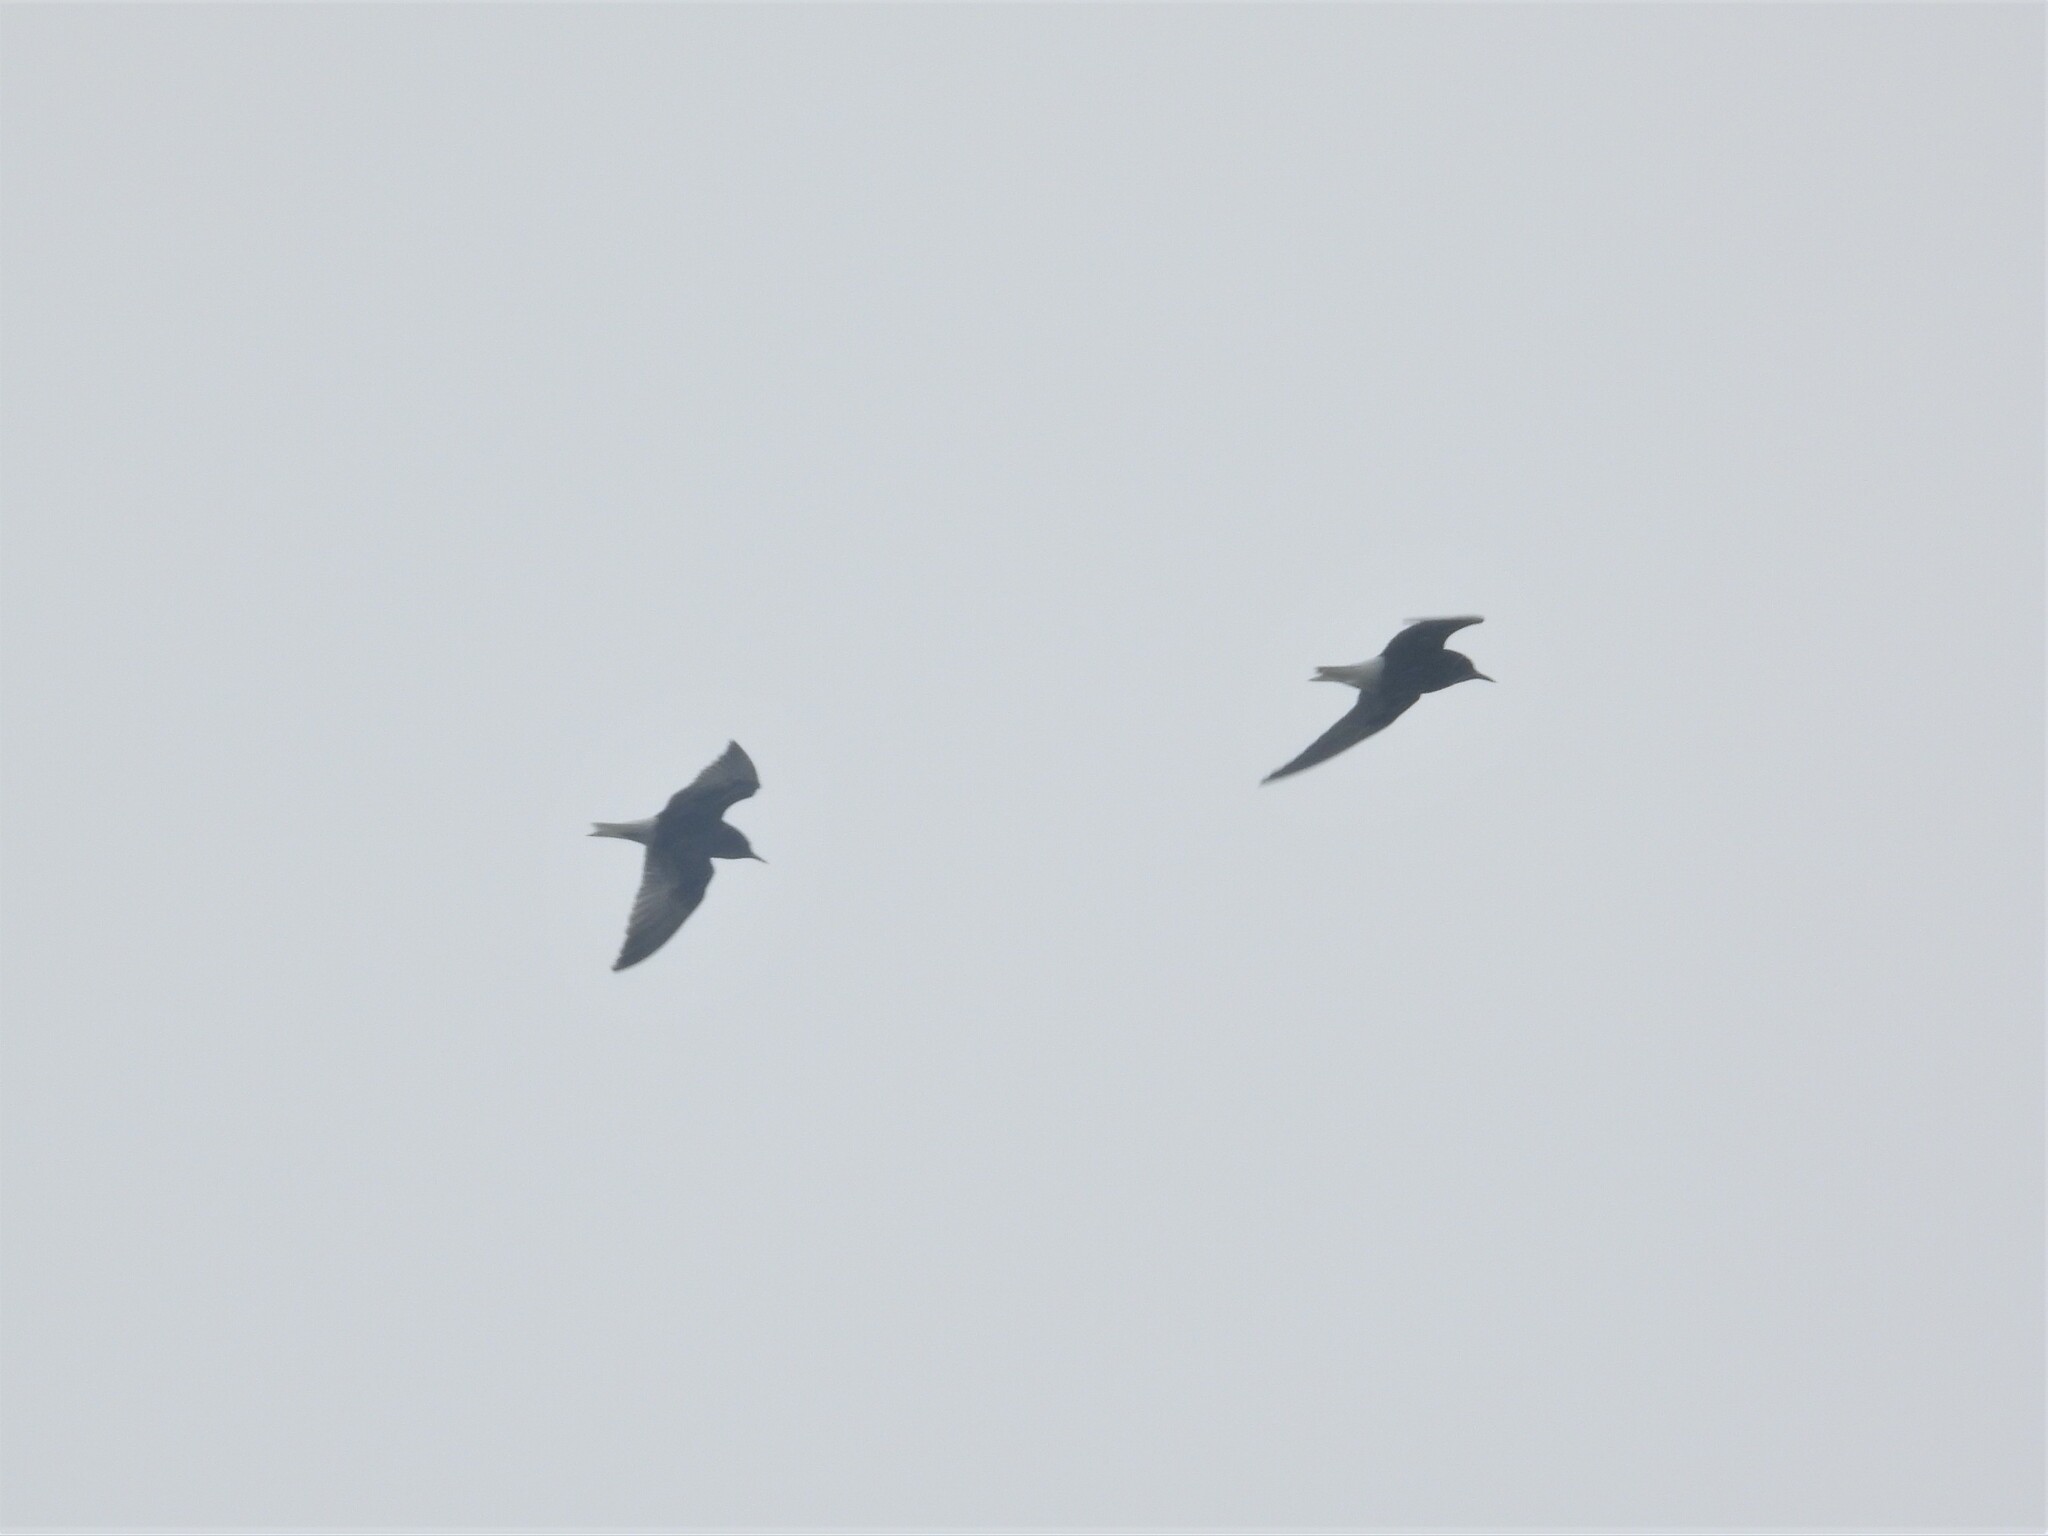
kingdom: Animalia
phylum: Chordata
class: Aves
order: Charadriiformes
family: Laridae
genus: Chlidonias
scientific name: Chlidonias leucopterus
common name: White-winged tern
